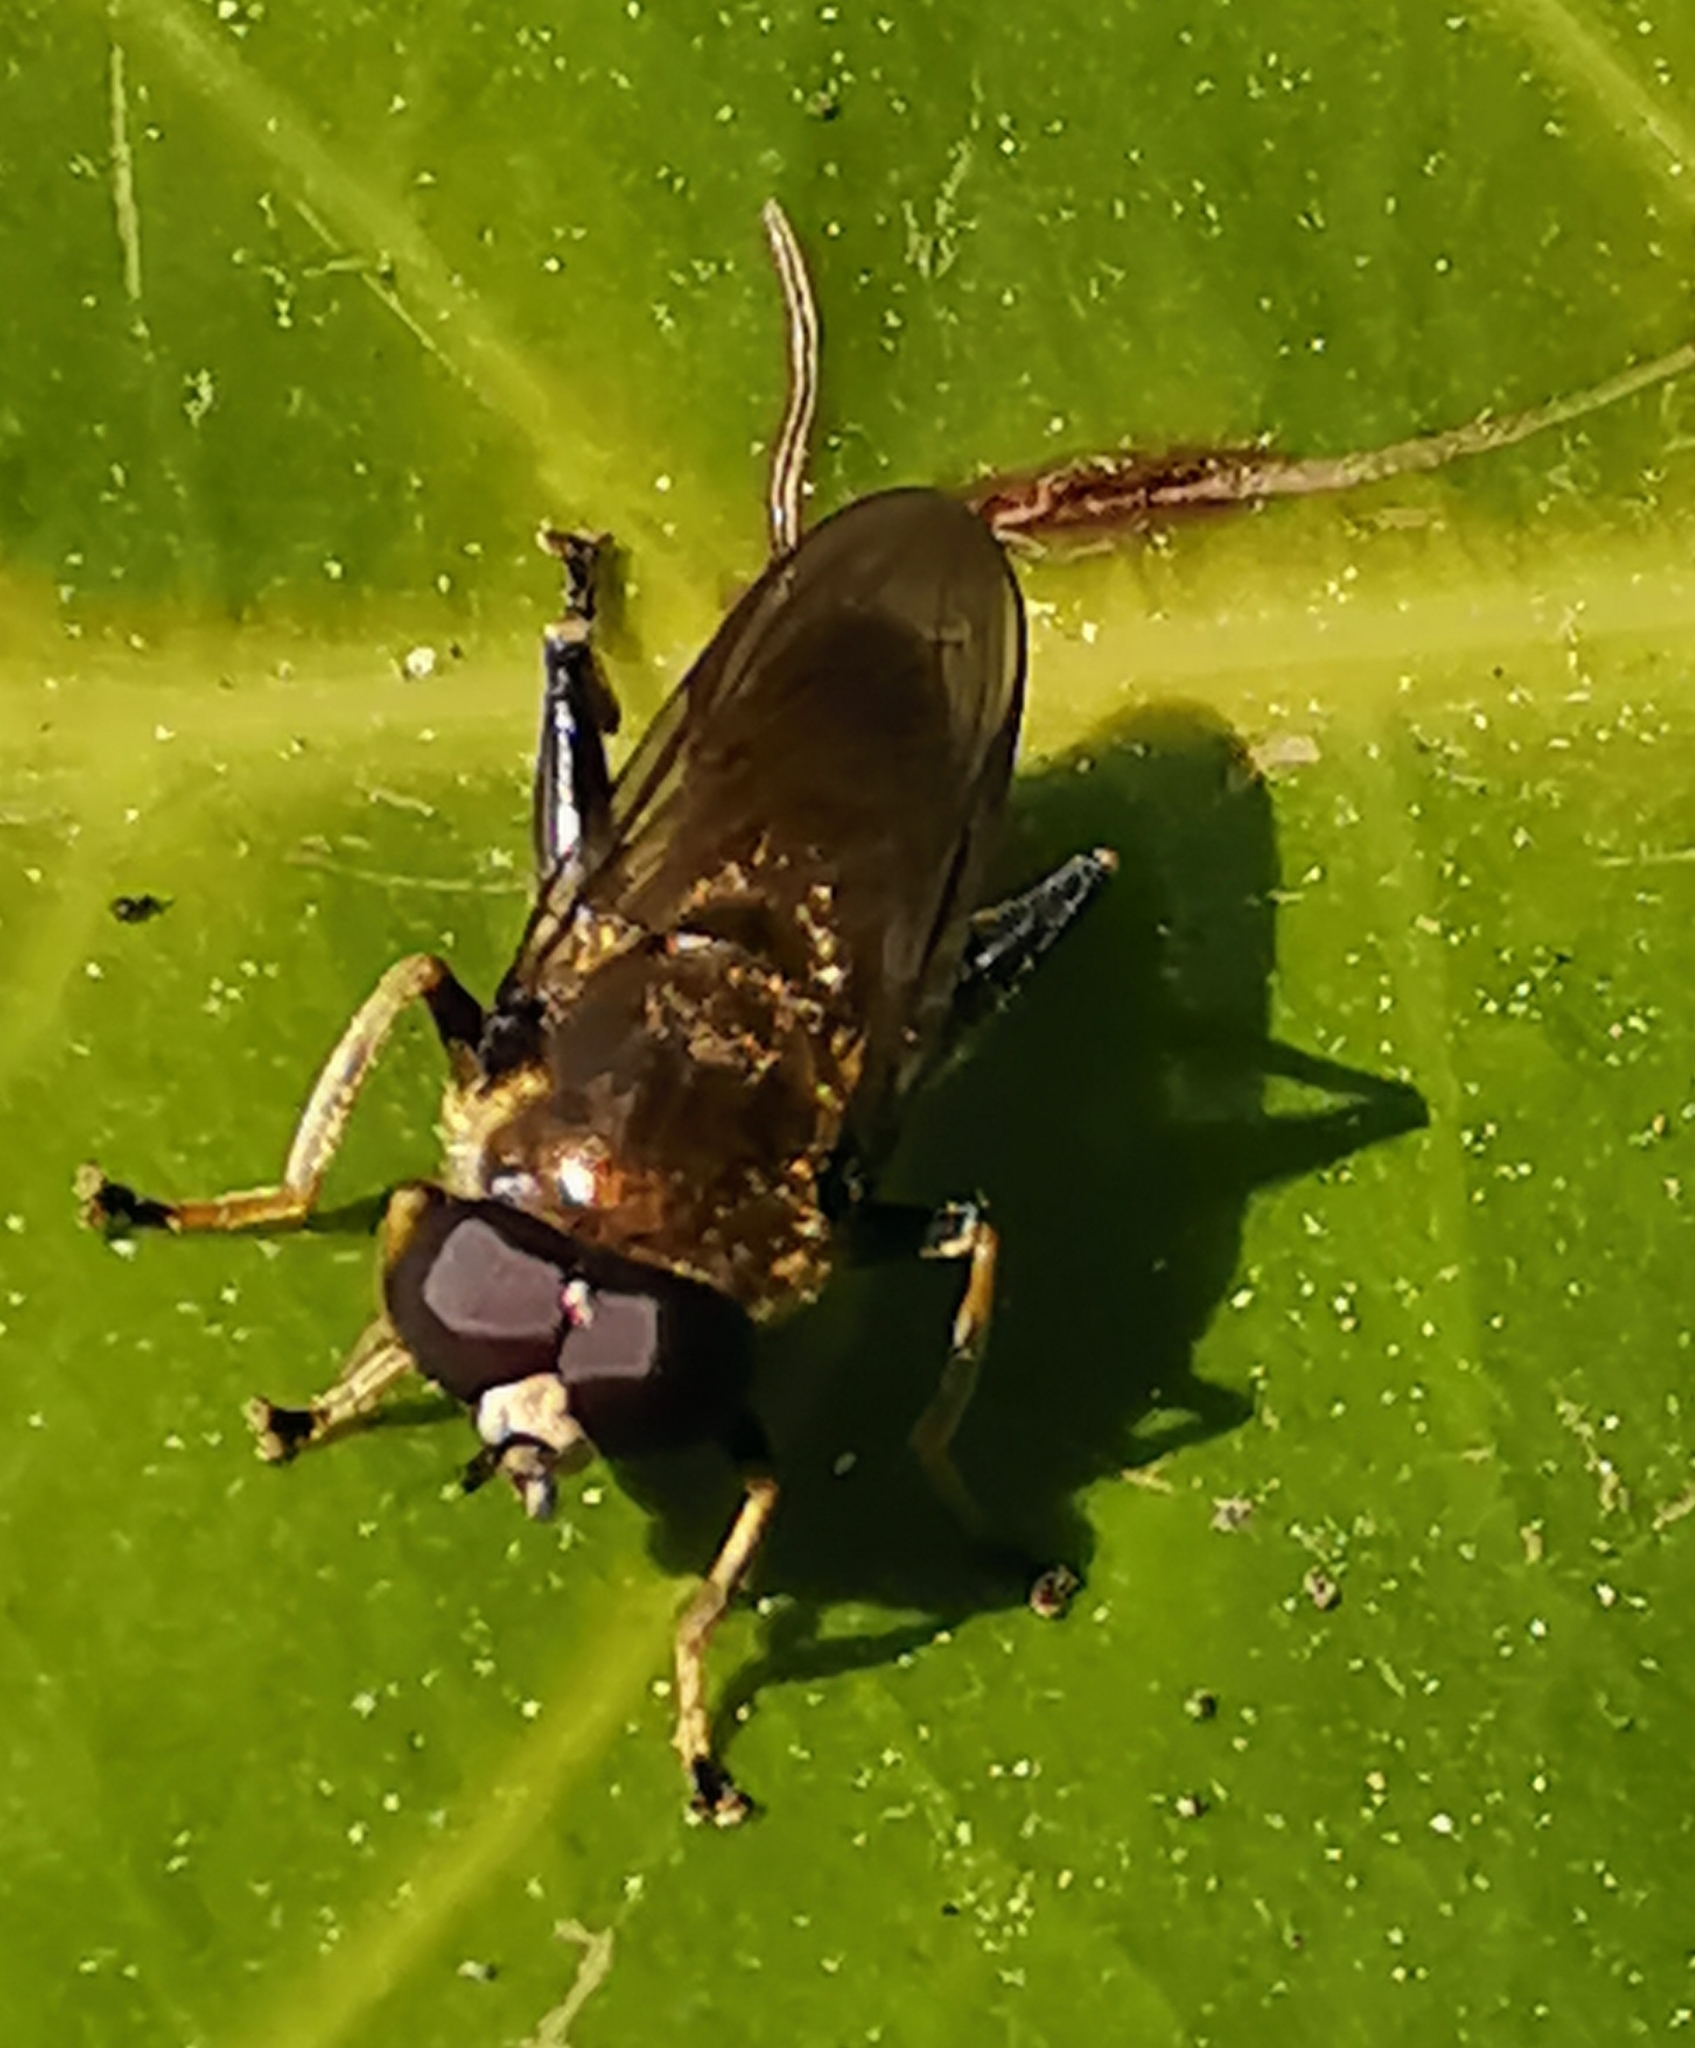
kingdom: Animalia
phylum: Arthropoda
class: Insecta
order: Diptera
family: Syrphidae
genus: Xylota
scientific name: Xylota segnis
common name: Brown-toed forest fly
